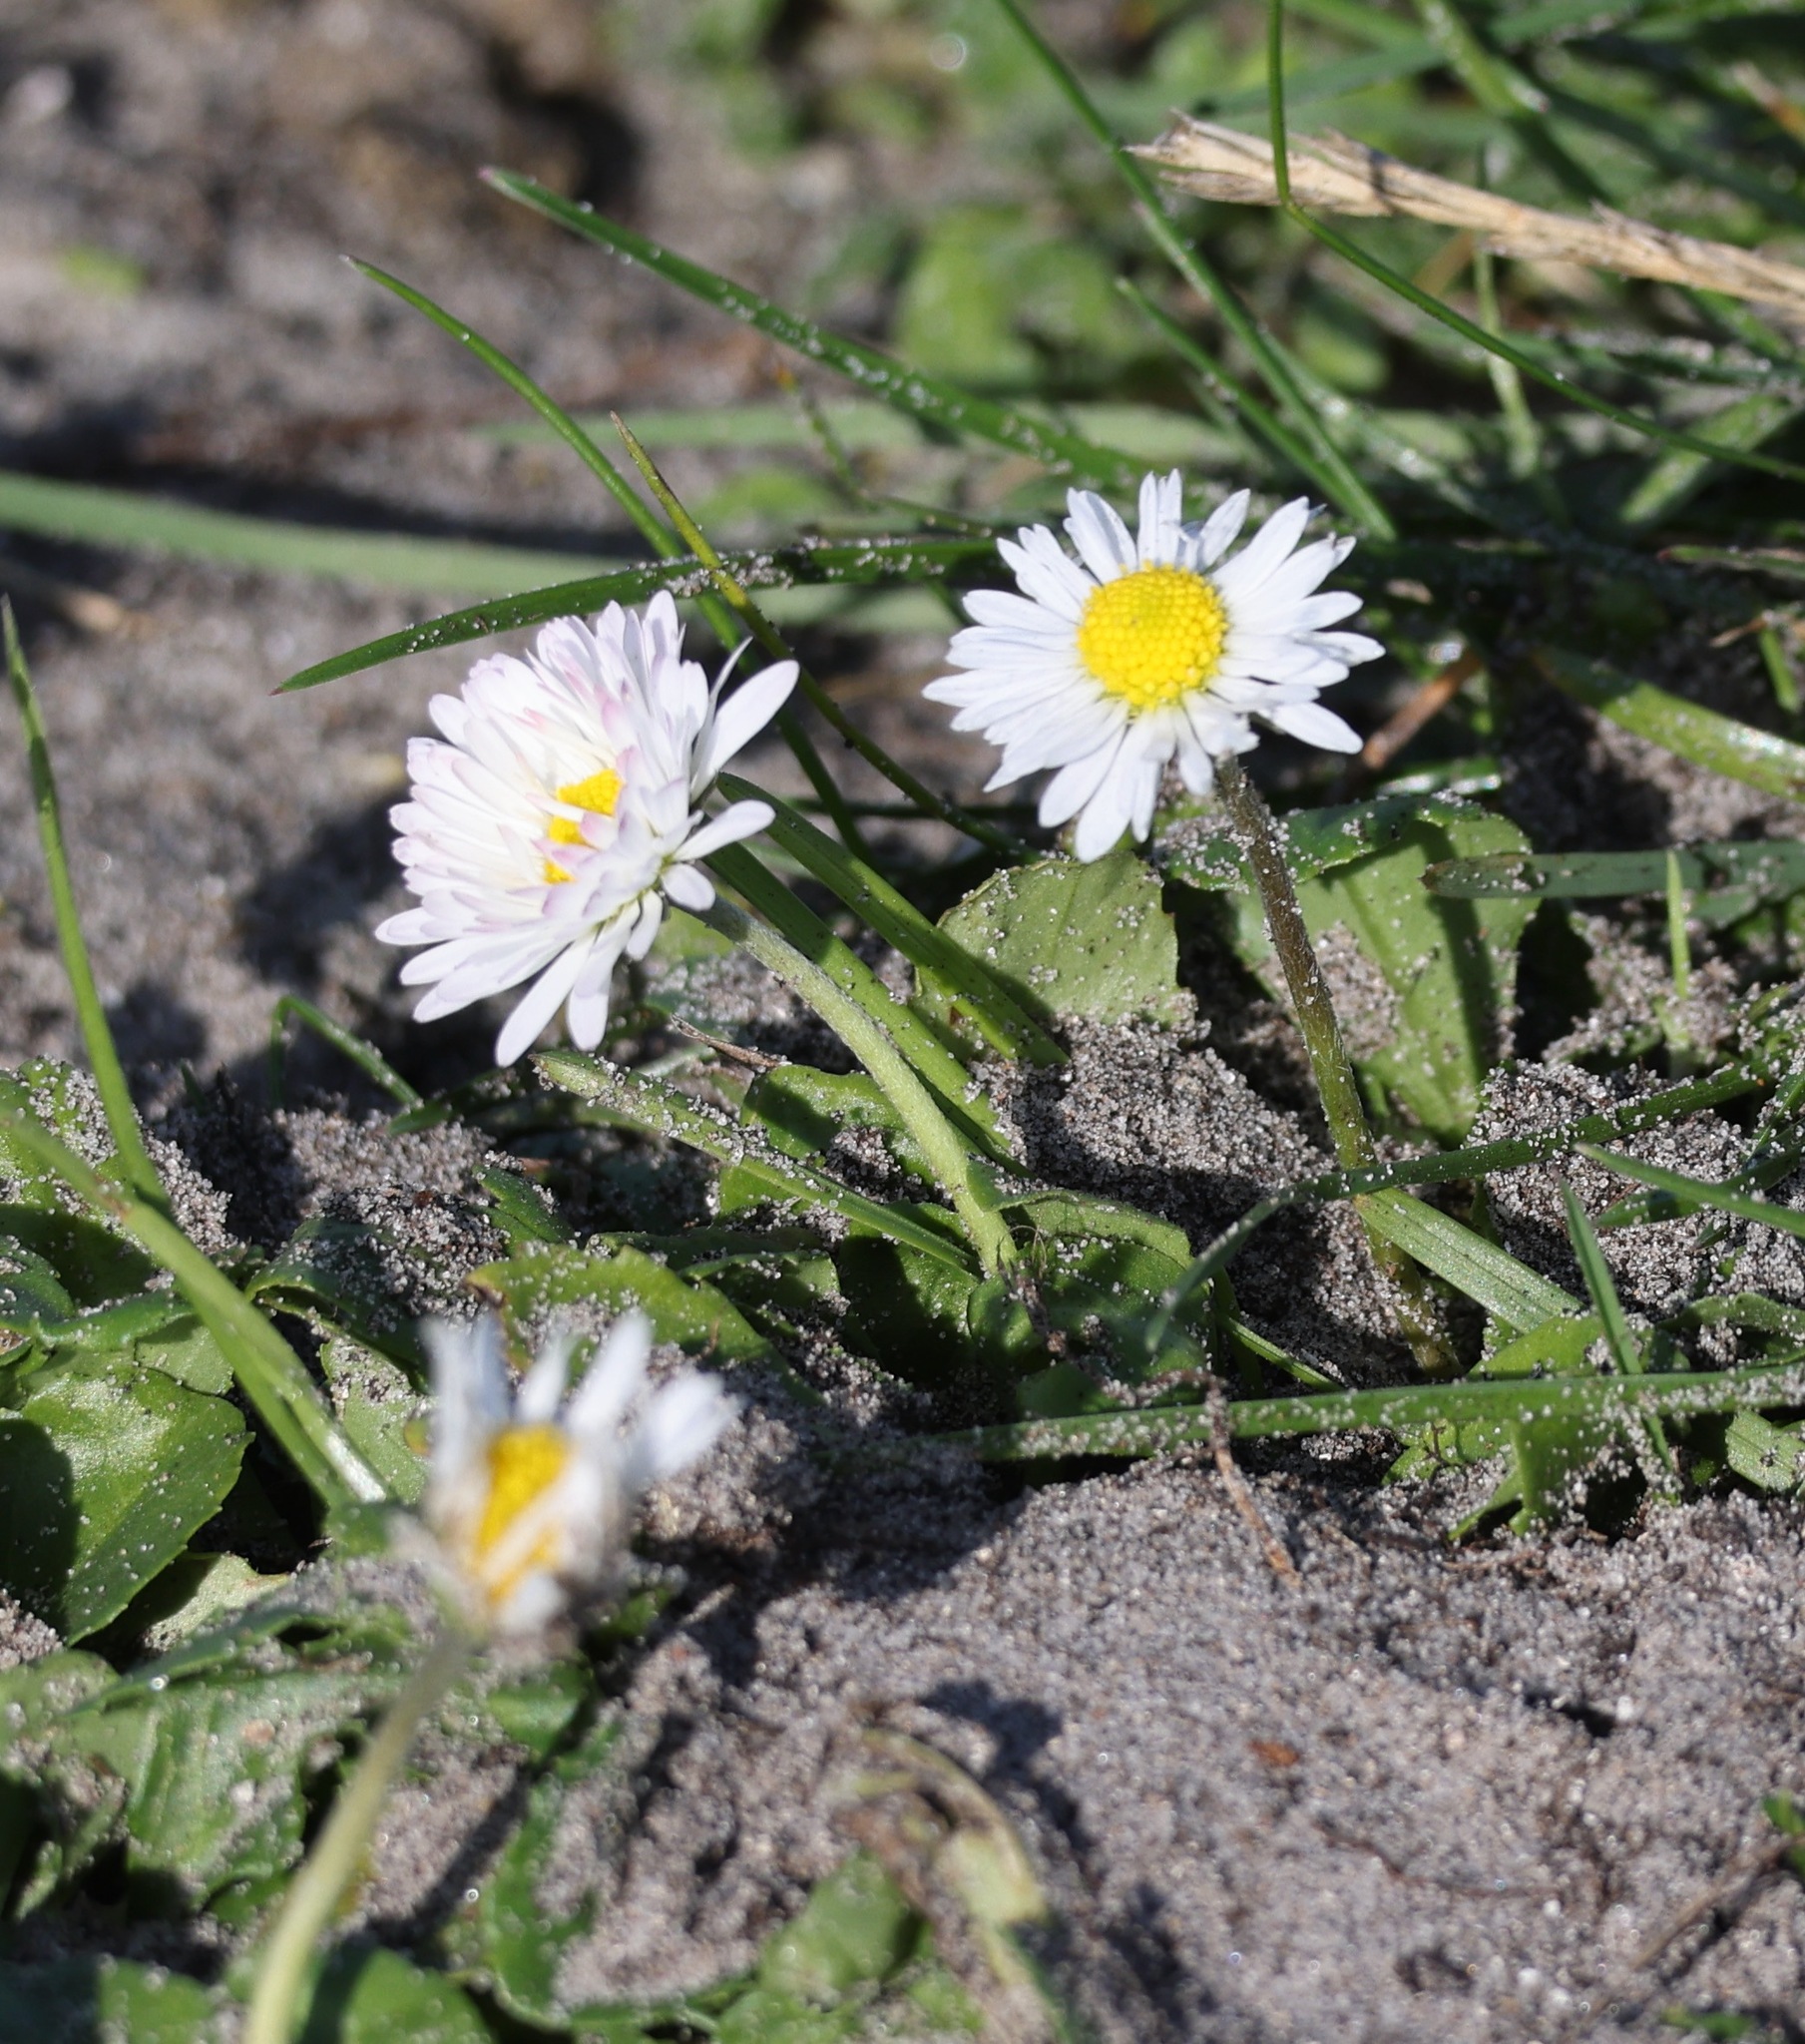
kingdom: Plantae
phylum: Tracheophyta
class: Magnoliopsida
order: Asterales
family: Asteraceae
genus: Bellis
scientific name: Bellis perennis
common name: Lawndaisy
